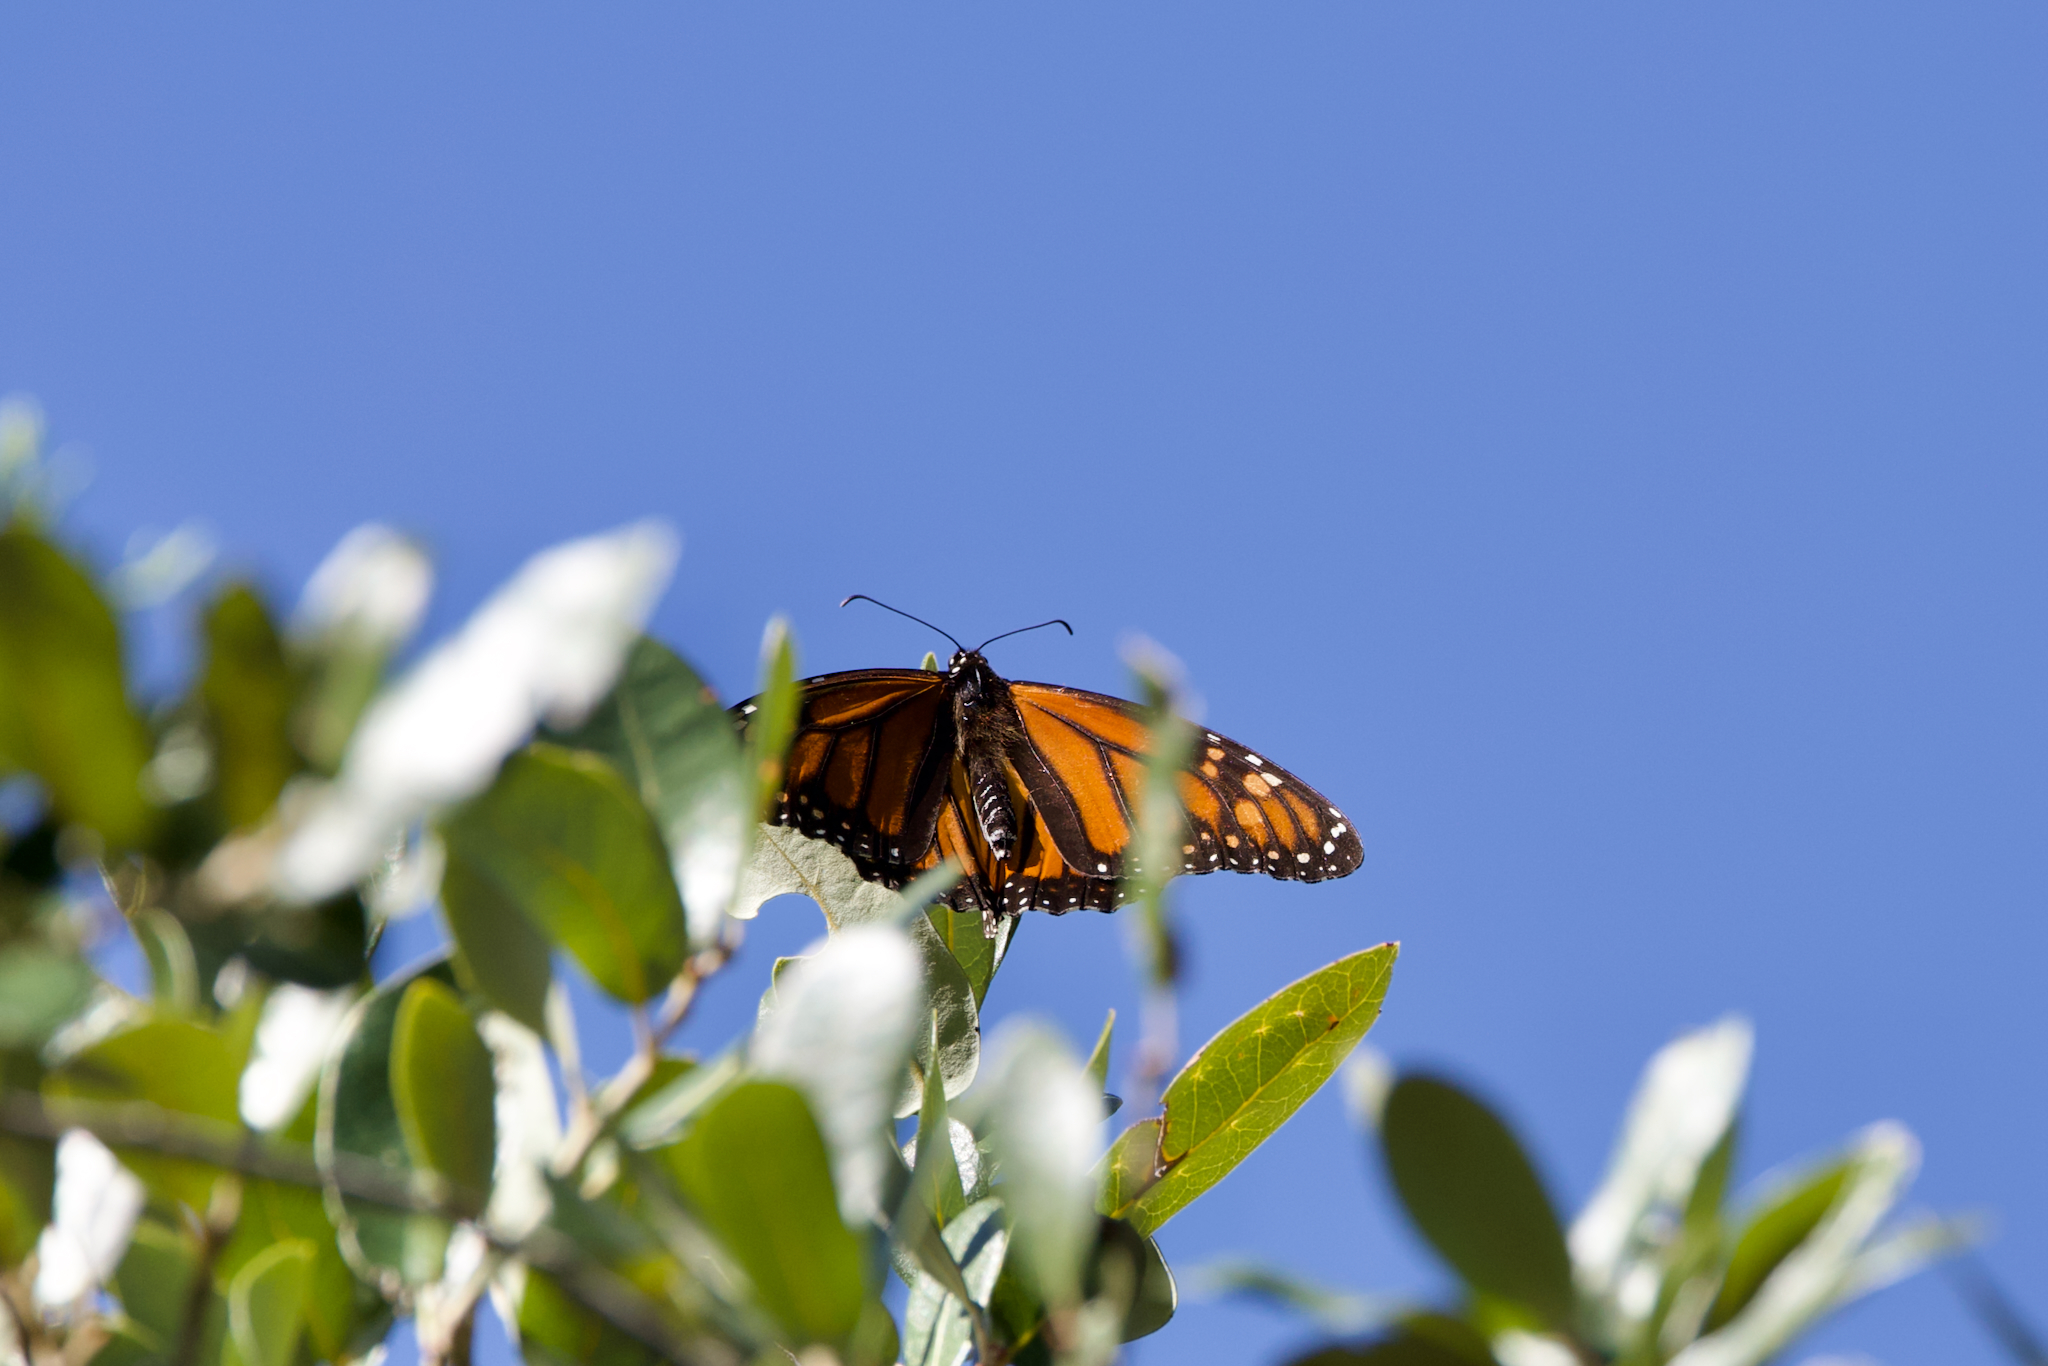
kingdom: Animalia
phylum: Arthropoda
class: Insecta
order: Lepidoptera
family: Nymphalidae
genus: Danaus
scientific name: Danaus plexippus
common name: Monarch
